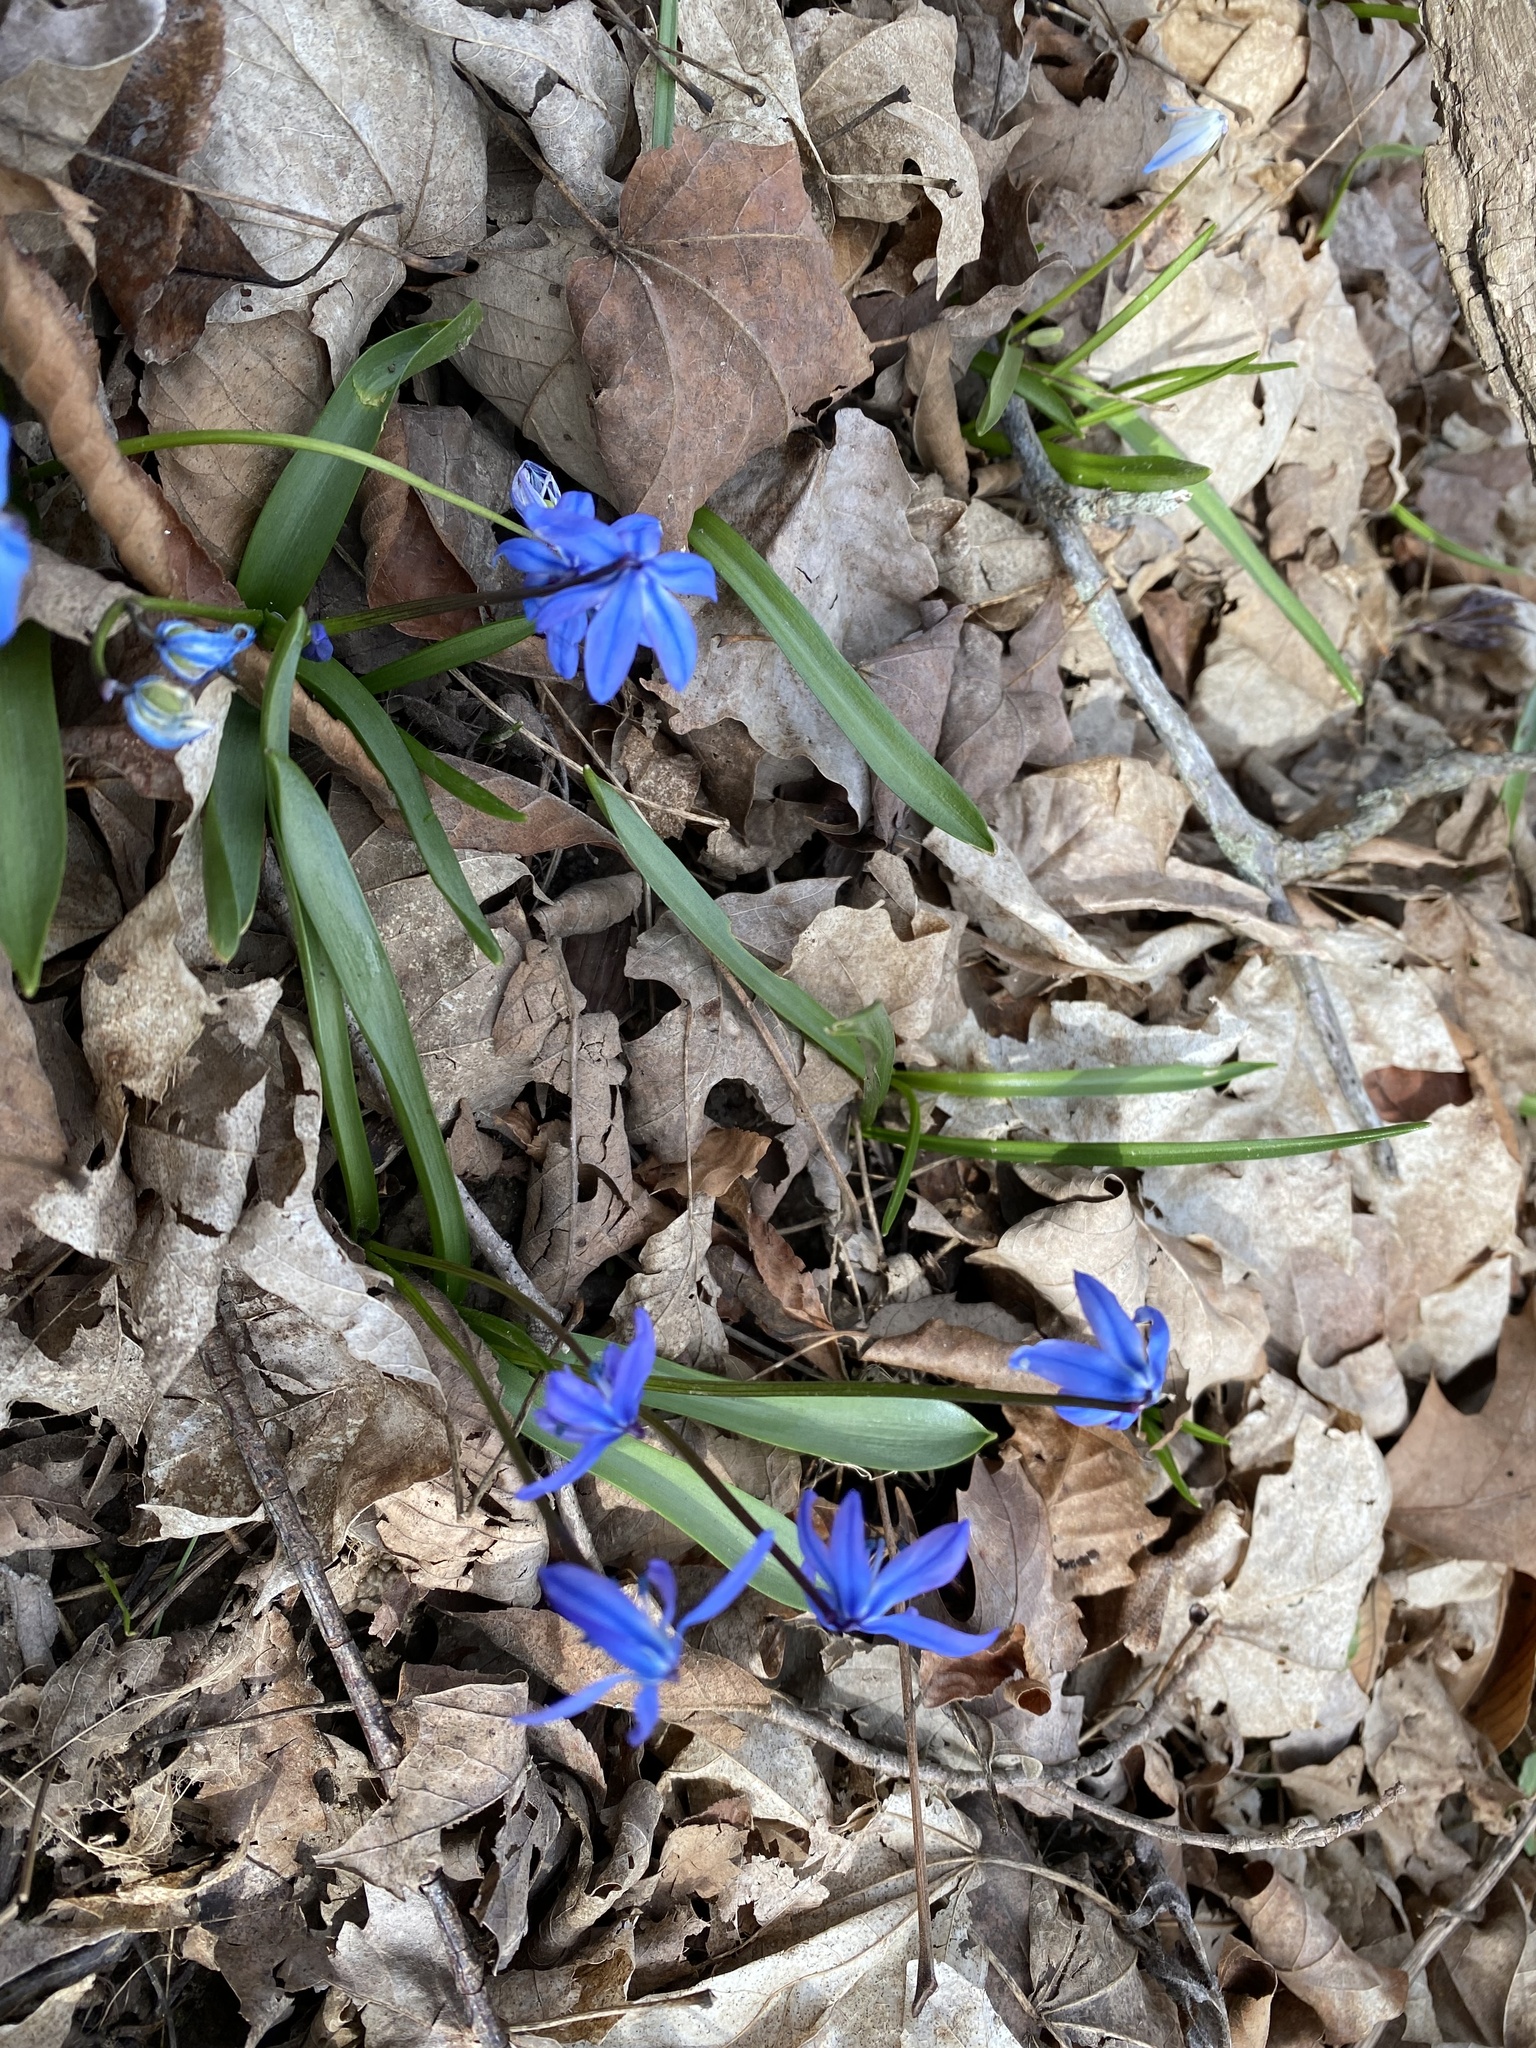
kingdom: Plantae
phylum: Tracheophyta
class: Liliopsida
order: Asparagales
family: Asparagaceae
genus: Scilla
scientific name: Scilla siberica
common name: Siberian squill
